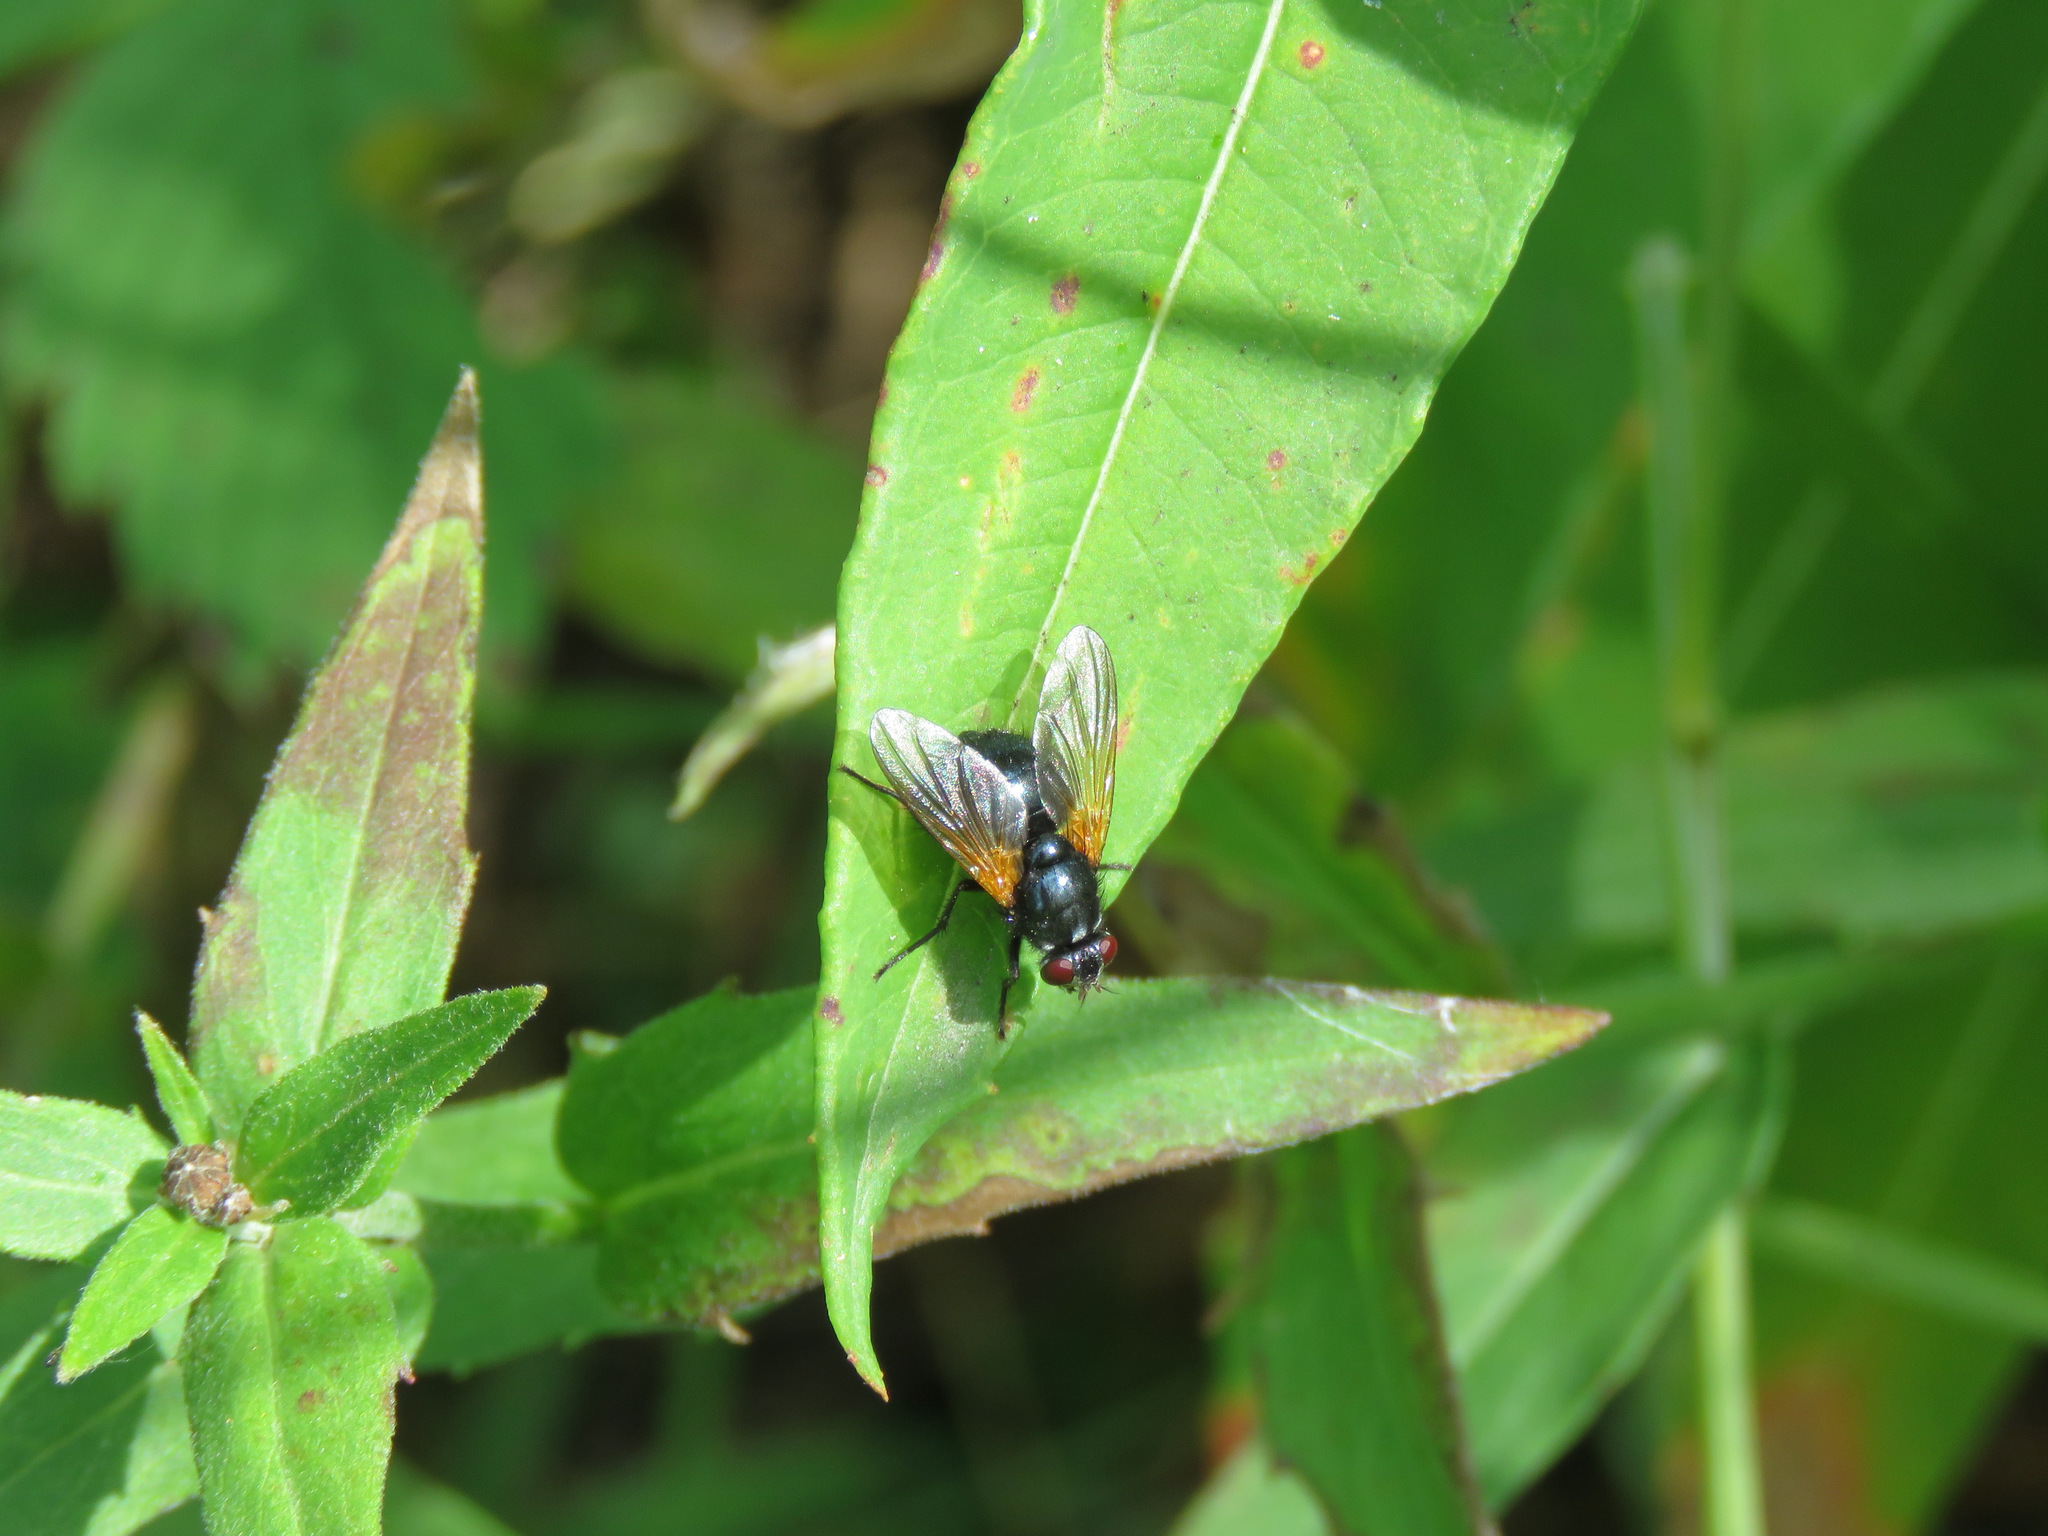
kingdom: Animalia
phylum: Arthropoda
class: Insecta
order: Diptera
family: Muscidae
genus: Mesembrina
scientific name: Mesembrina latreillii
